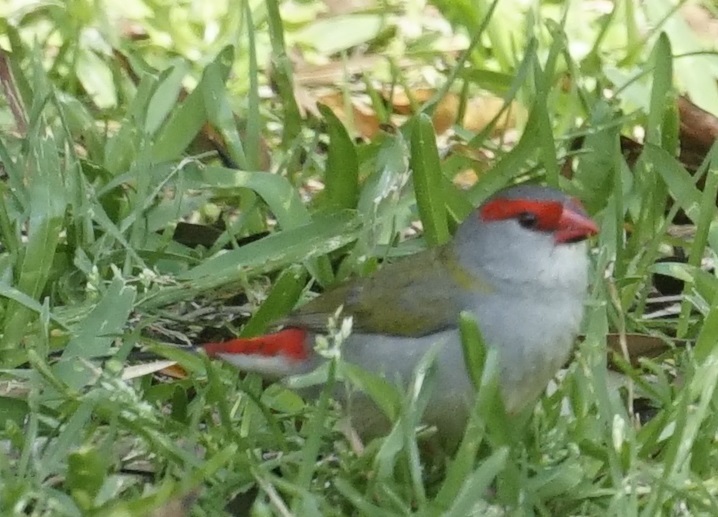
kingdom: Animalia
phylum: Chordata
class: Aves
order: Passeriformes
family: Estrildidae
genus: Neochmia
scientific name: Neochmia temporalis
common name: Red-browed finch
